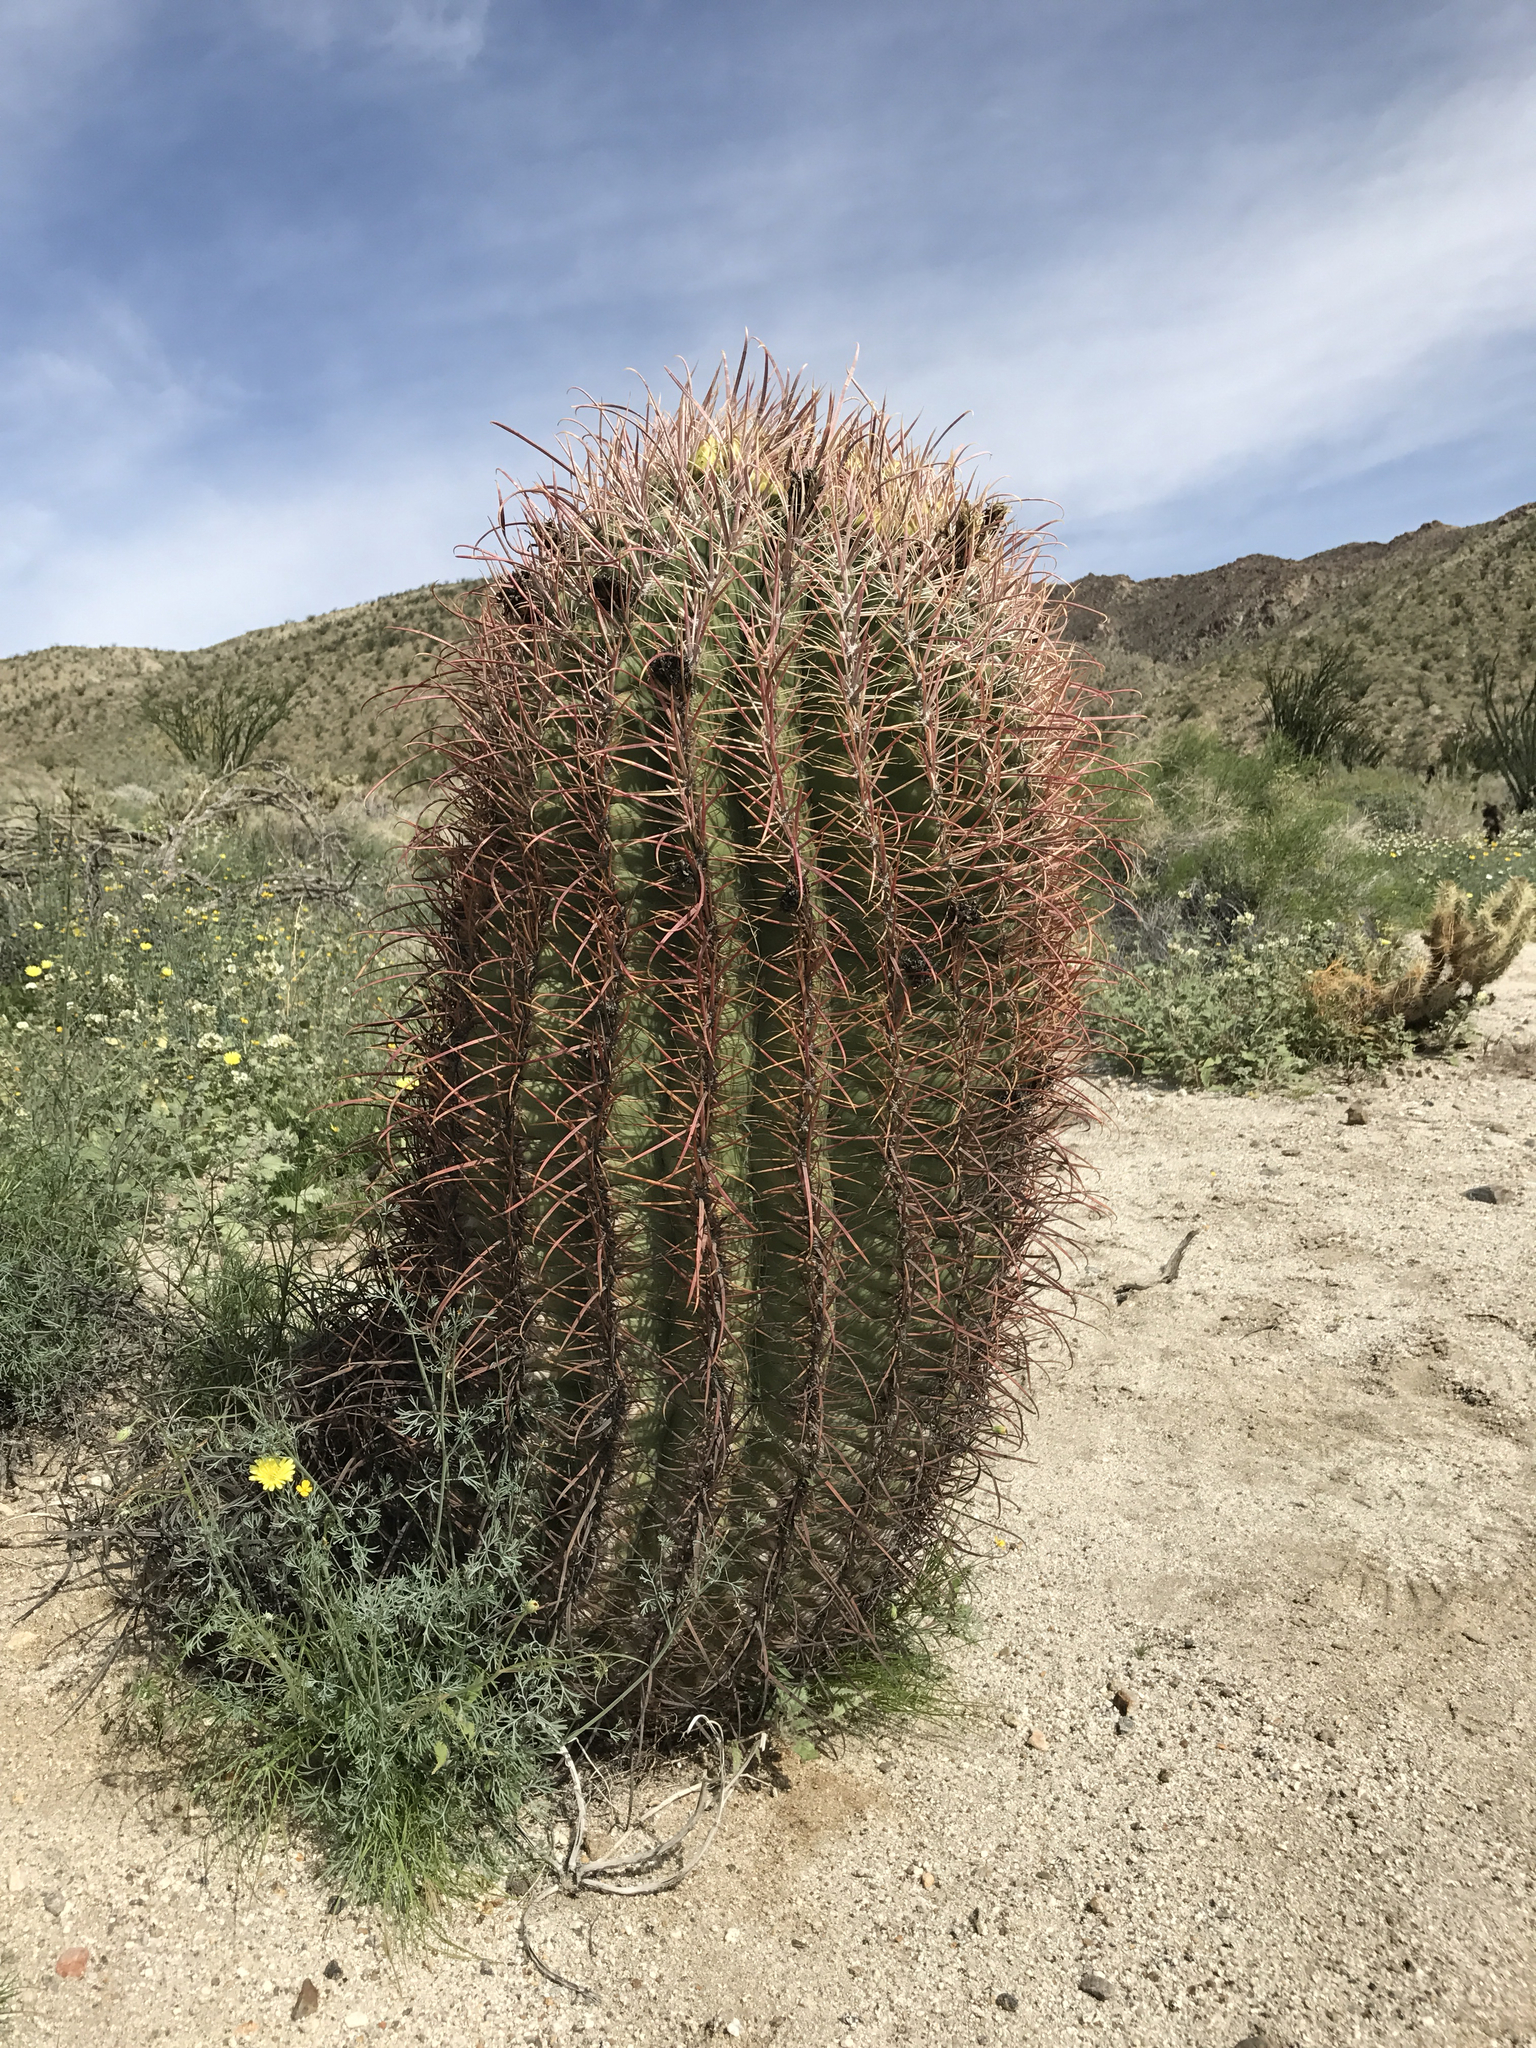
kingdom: Plantae
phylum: Tracheophyta
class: Magnoliopsida
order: Caryophyllales
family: Cactaceae
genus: Ferocactus
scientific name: Ferocactus cylindraceus
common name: California barrel cactus
